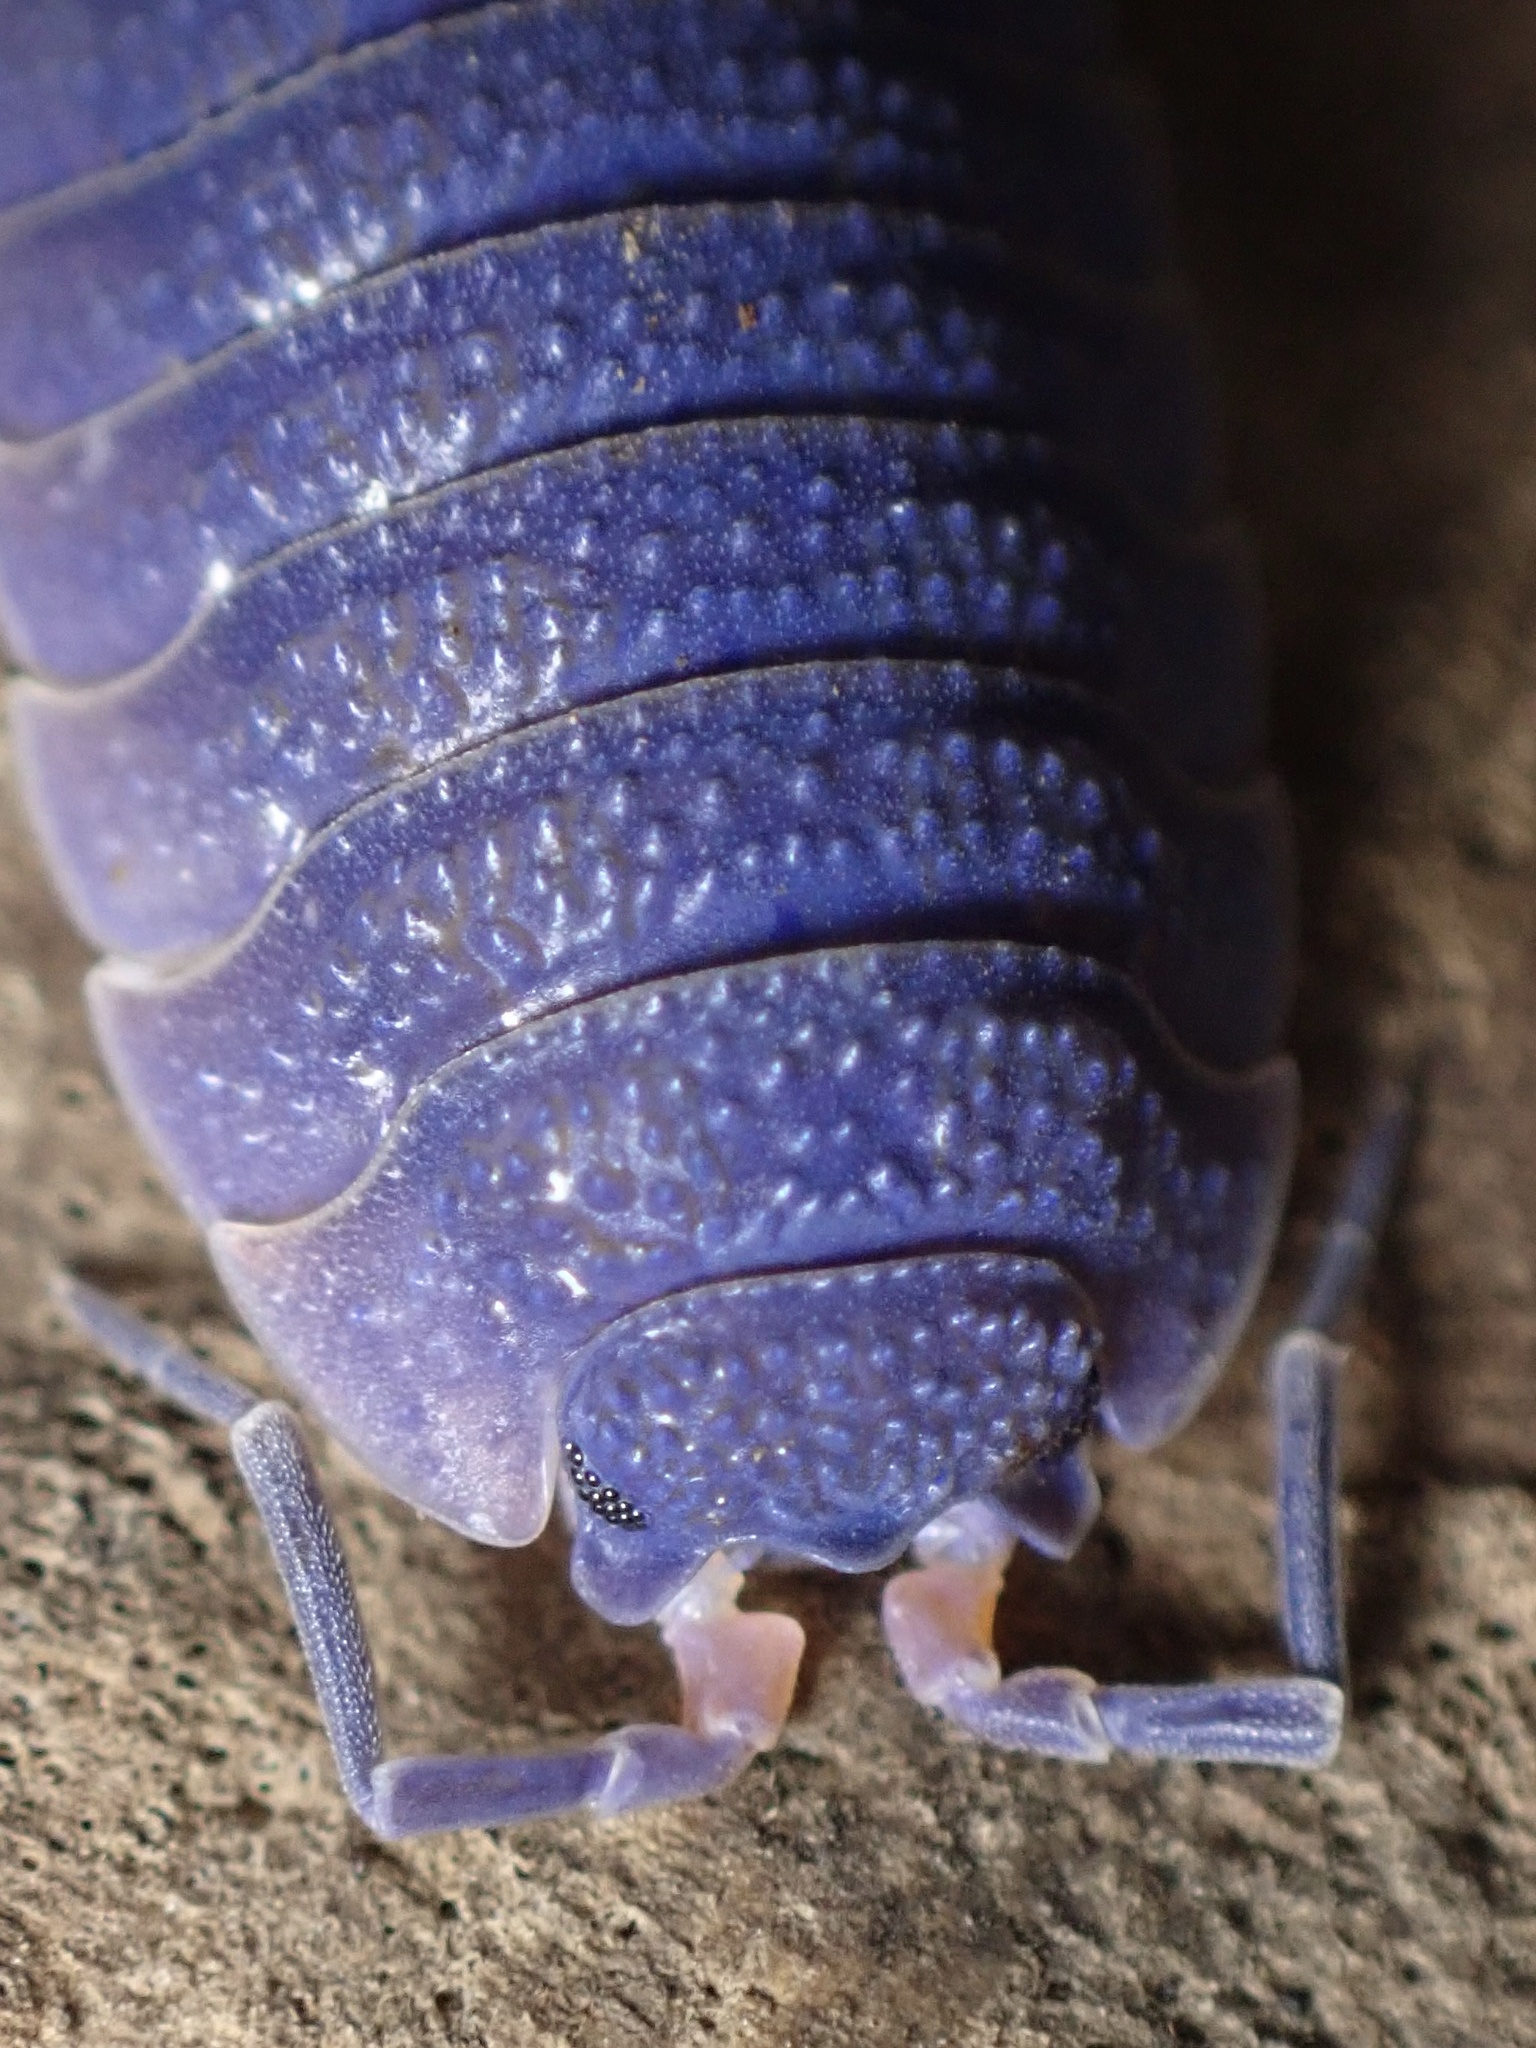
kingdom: Animalia
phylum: Arthropoda
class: Malacostraca
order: Isopoda
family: Porcellionidae
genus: Porcellio
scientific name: Porcellio scaber
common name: Common rough woodlouse
